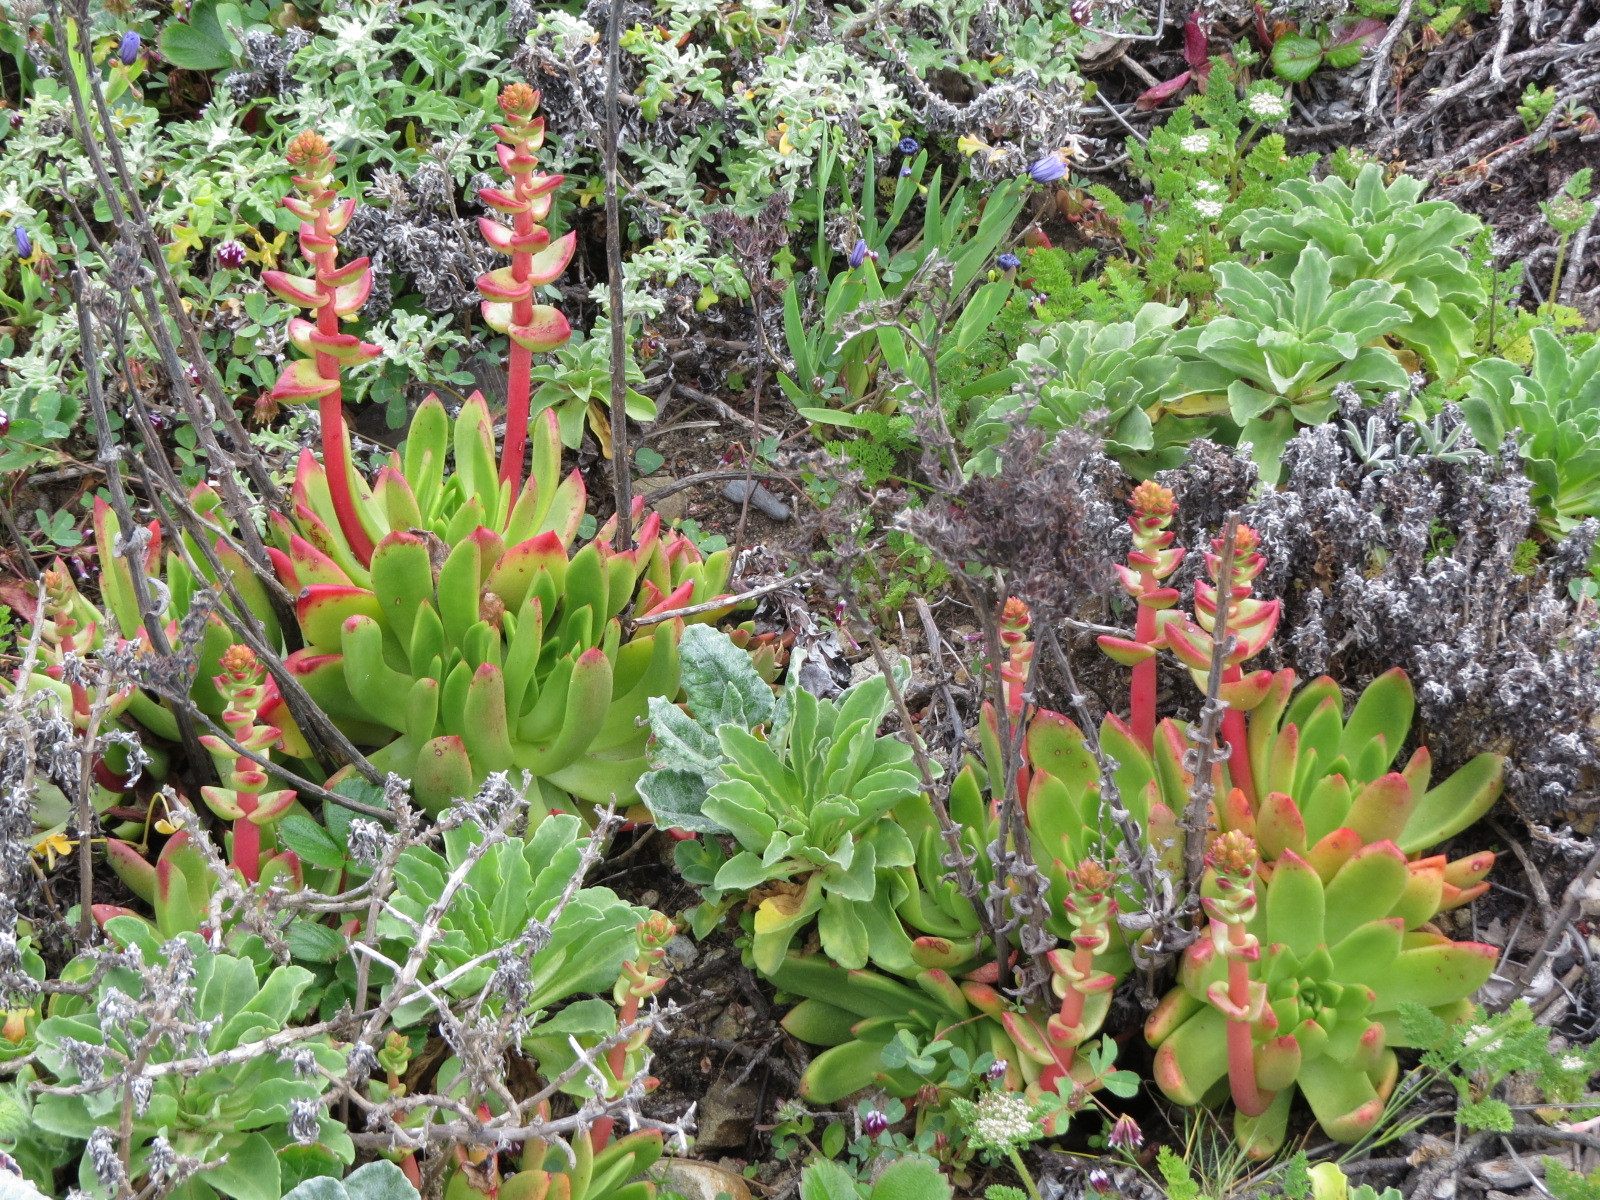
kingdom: Plantae
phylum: Tracheophyta
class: Magnoliopsida
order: Saxifragales
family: Crassulaceae
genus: Dudleya
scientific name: Dudleya farinosa
